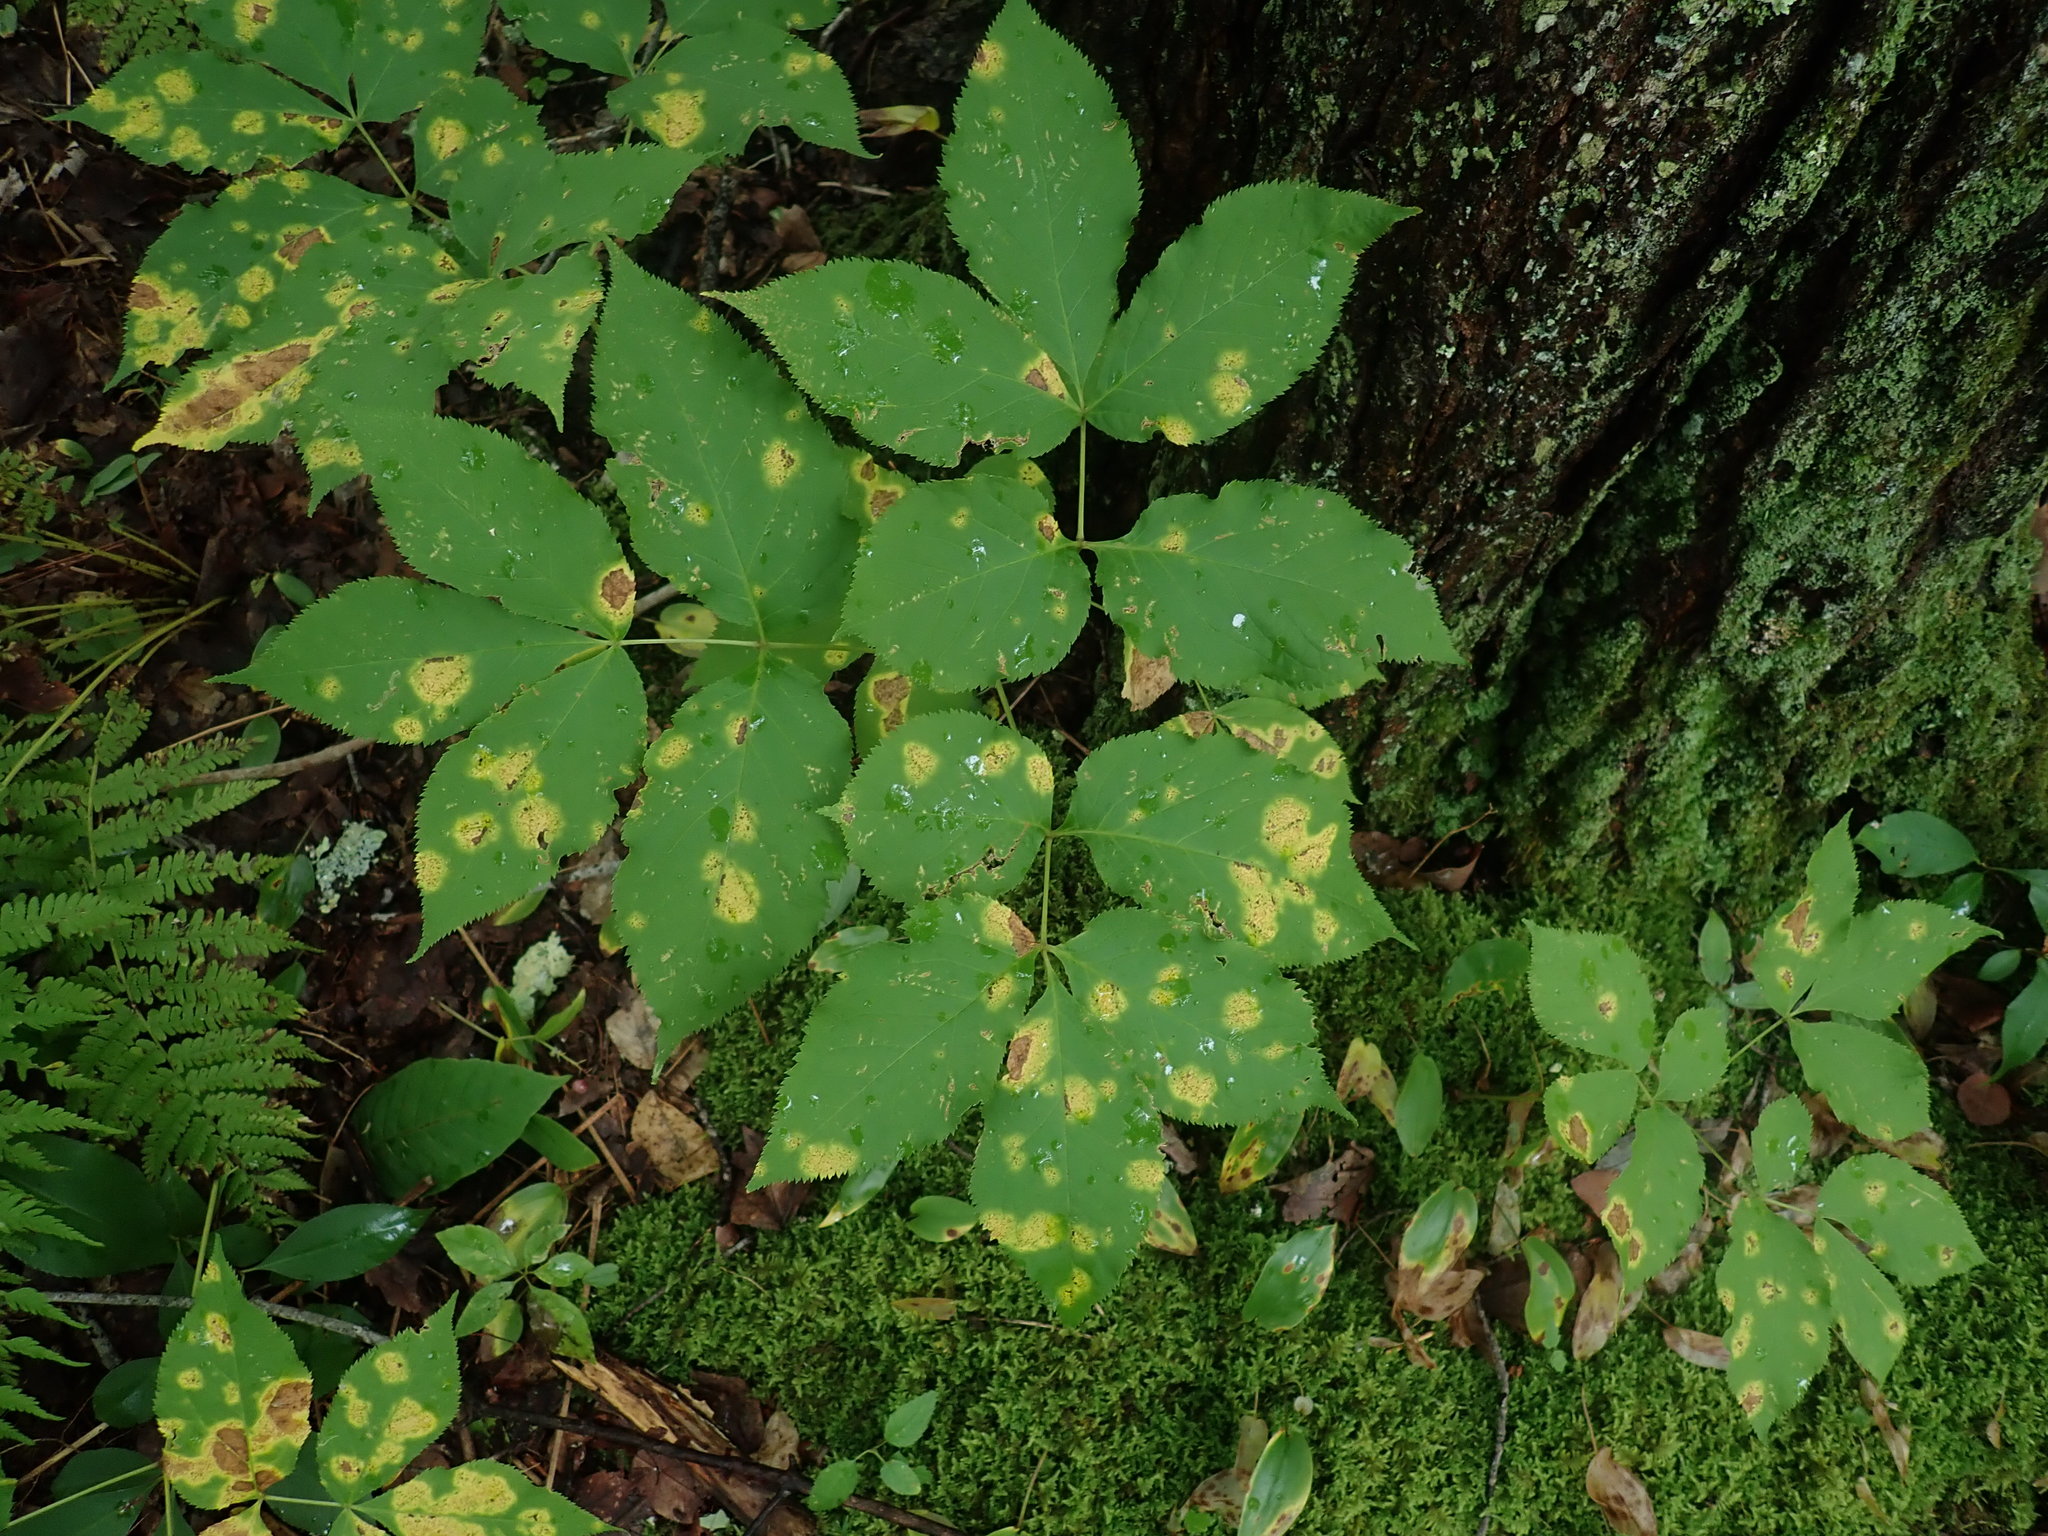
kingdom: Plantae
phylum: Tracheophyta
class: Magnoliopsida
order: Apiales
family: Araliaceae
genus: Aralia
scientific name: Aralia nudicaulis
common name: Wild sarsaparilla
